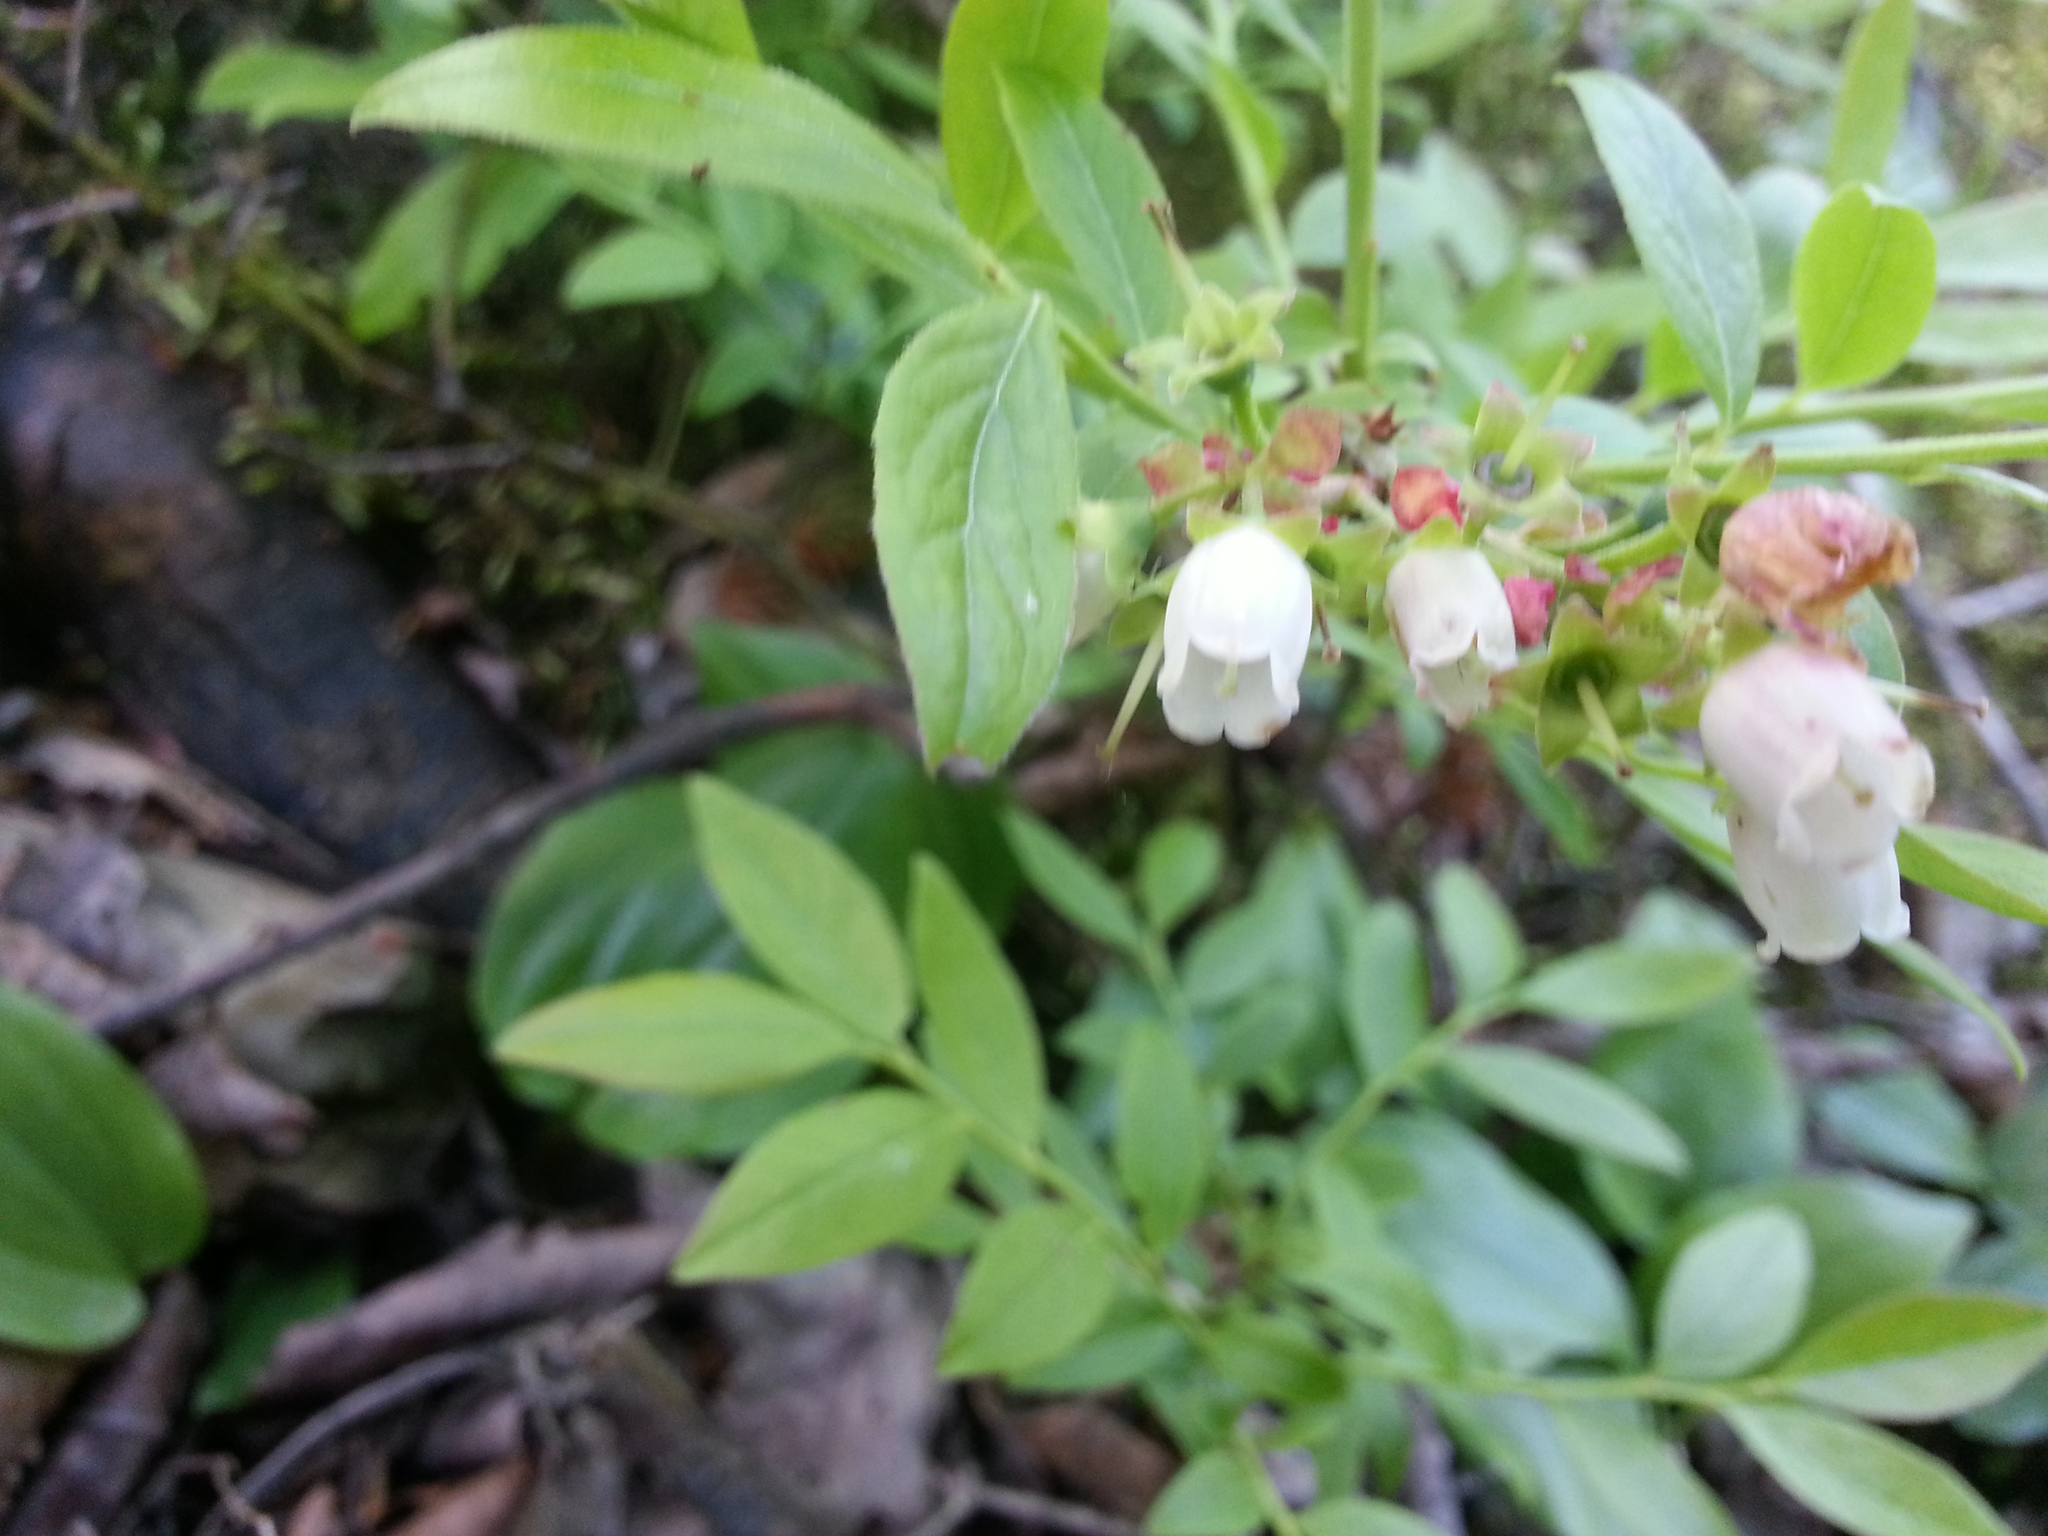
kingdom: Plantae
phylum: Tracheophyta
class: Magnoliopsida
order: Ericales
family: Ericaceae
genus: Vaccinium
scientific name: Vaccinium angustifolium
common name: Early lowbush blueberry
